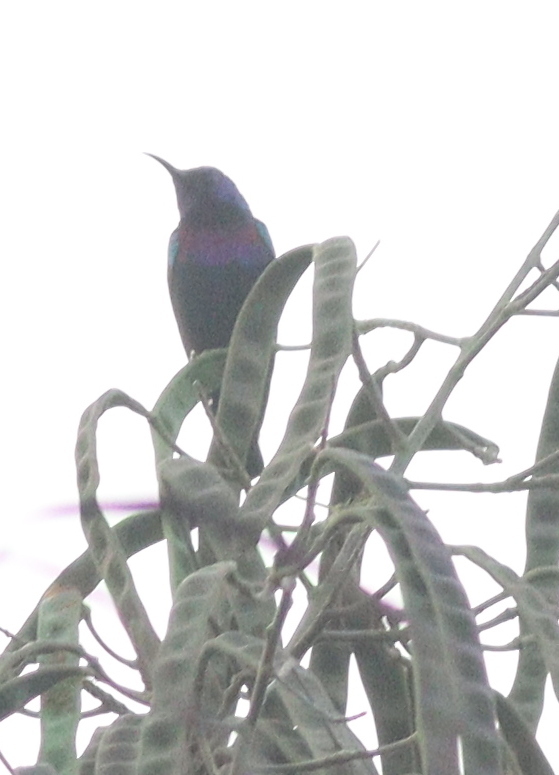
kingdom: Animalia
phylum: Chordata
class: Aves
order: Passeriformes
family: Nectariniidae
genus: Cinnyris
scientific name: Cinnyris coccinigastrus
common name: Splendid sunbird
